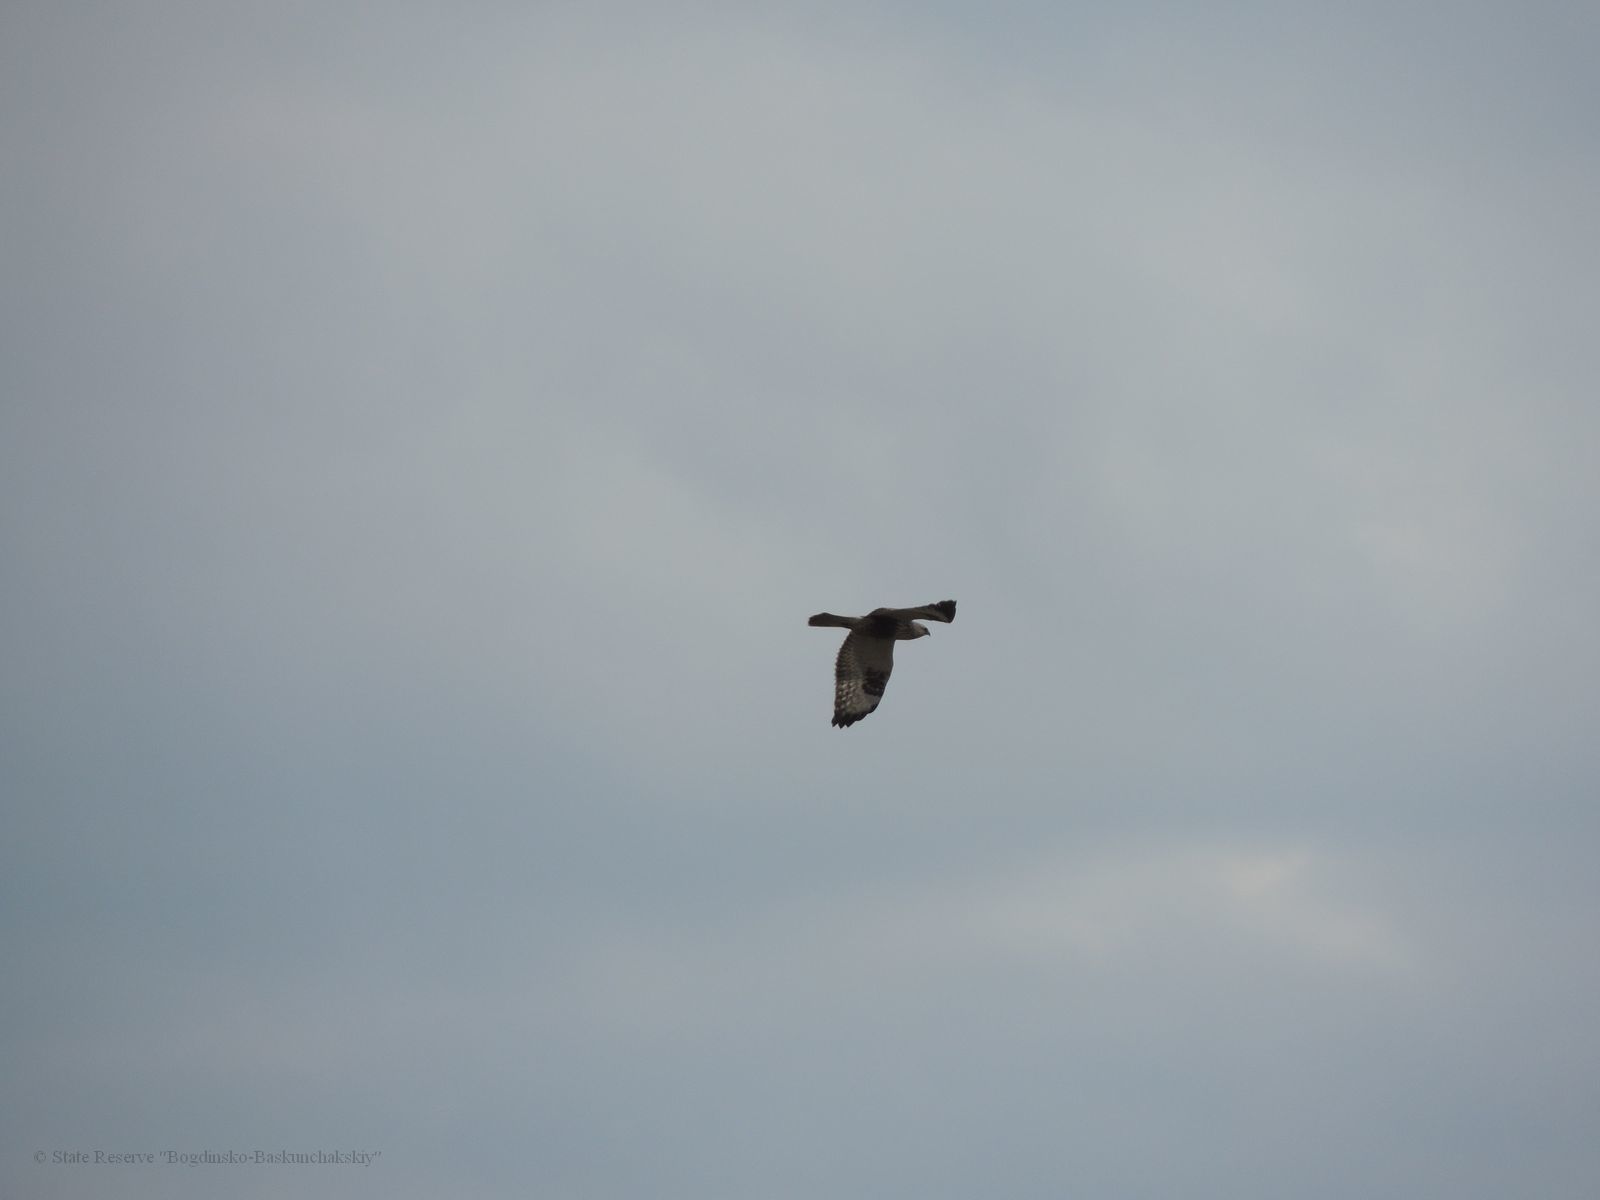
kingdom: Animalia
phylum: Chordata
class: Aves
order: Accipitriformes
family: Accipitridae
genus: Buteo
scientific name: Buteo lagopus
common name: Rough-legged buzzard
